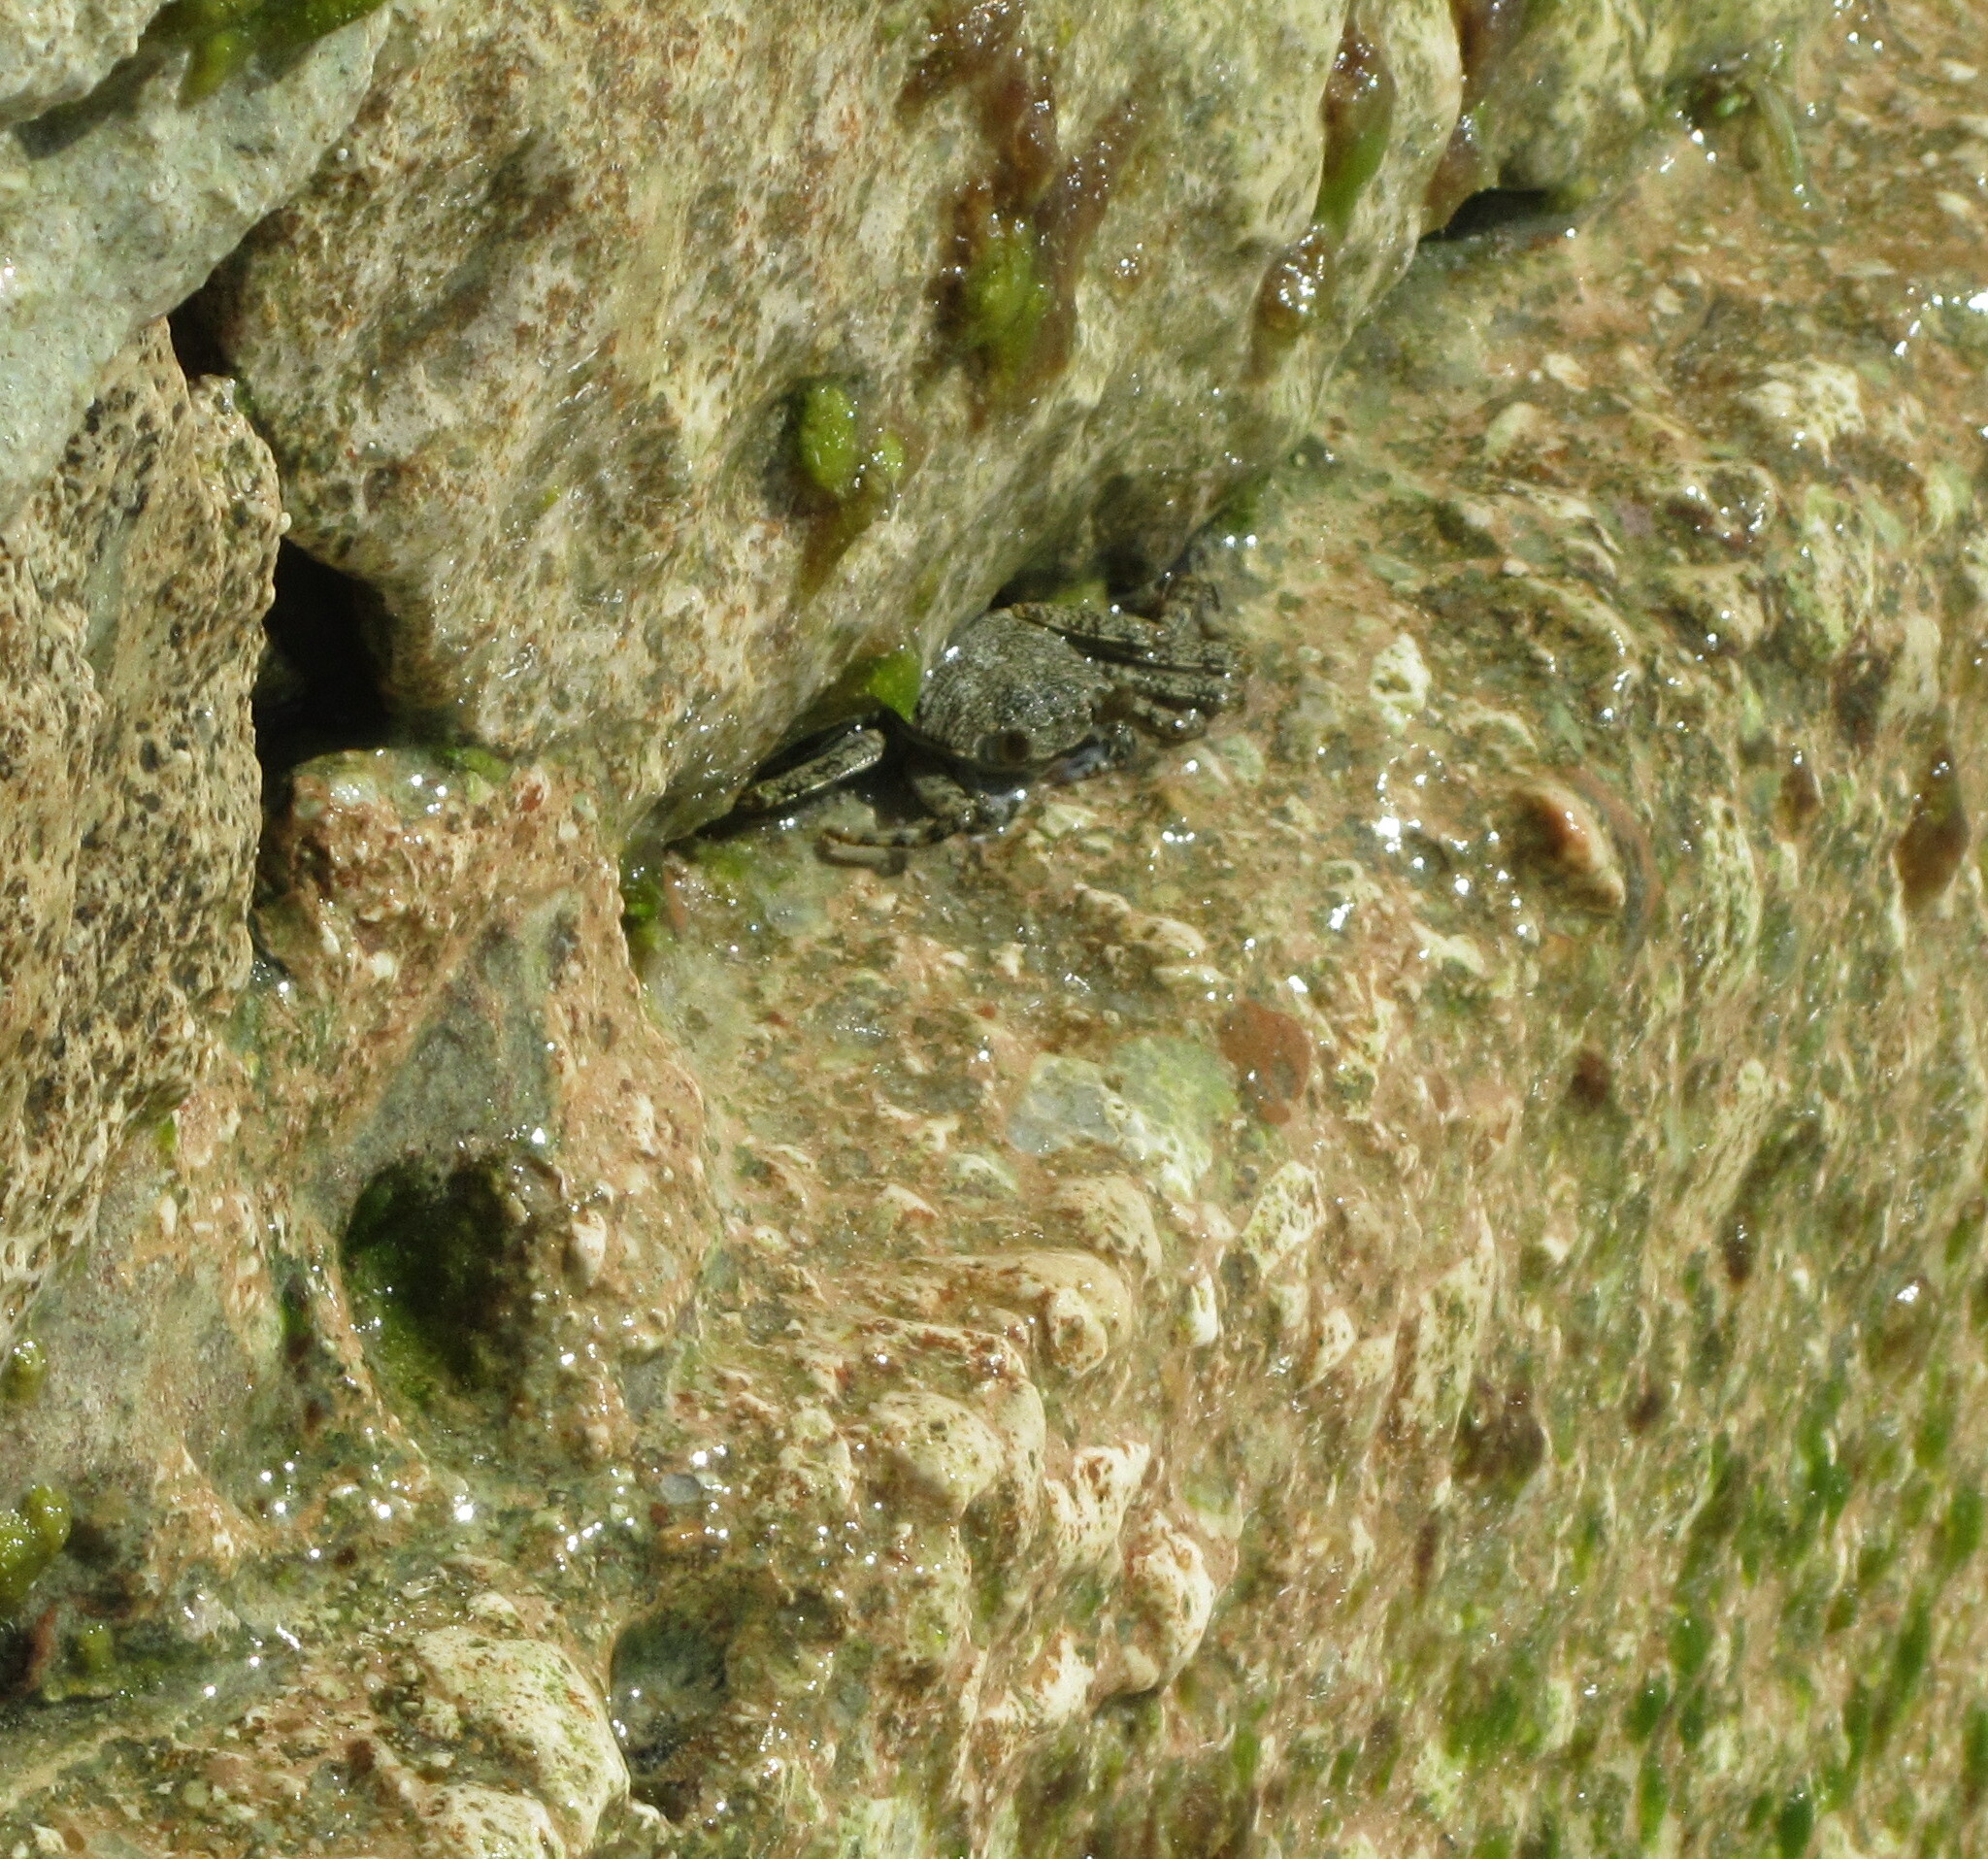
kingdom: Animalia
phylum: Arthropoda
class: Malacostraca
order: Decapoda
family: Grapsidae
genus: Grapsus
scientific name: Grapsus grapsus
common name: Sally lightfoot
